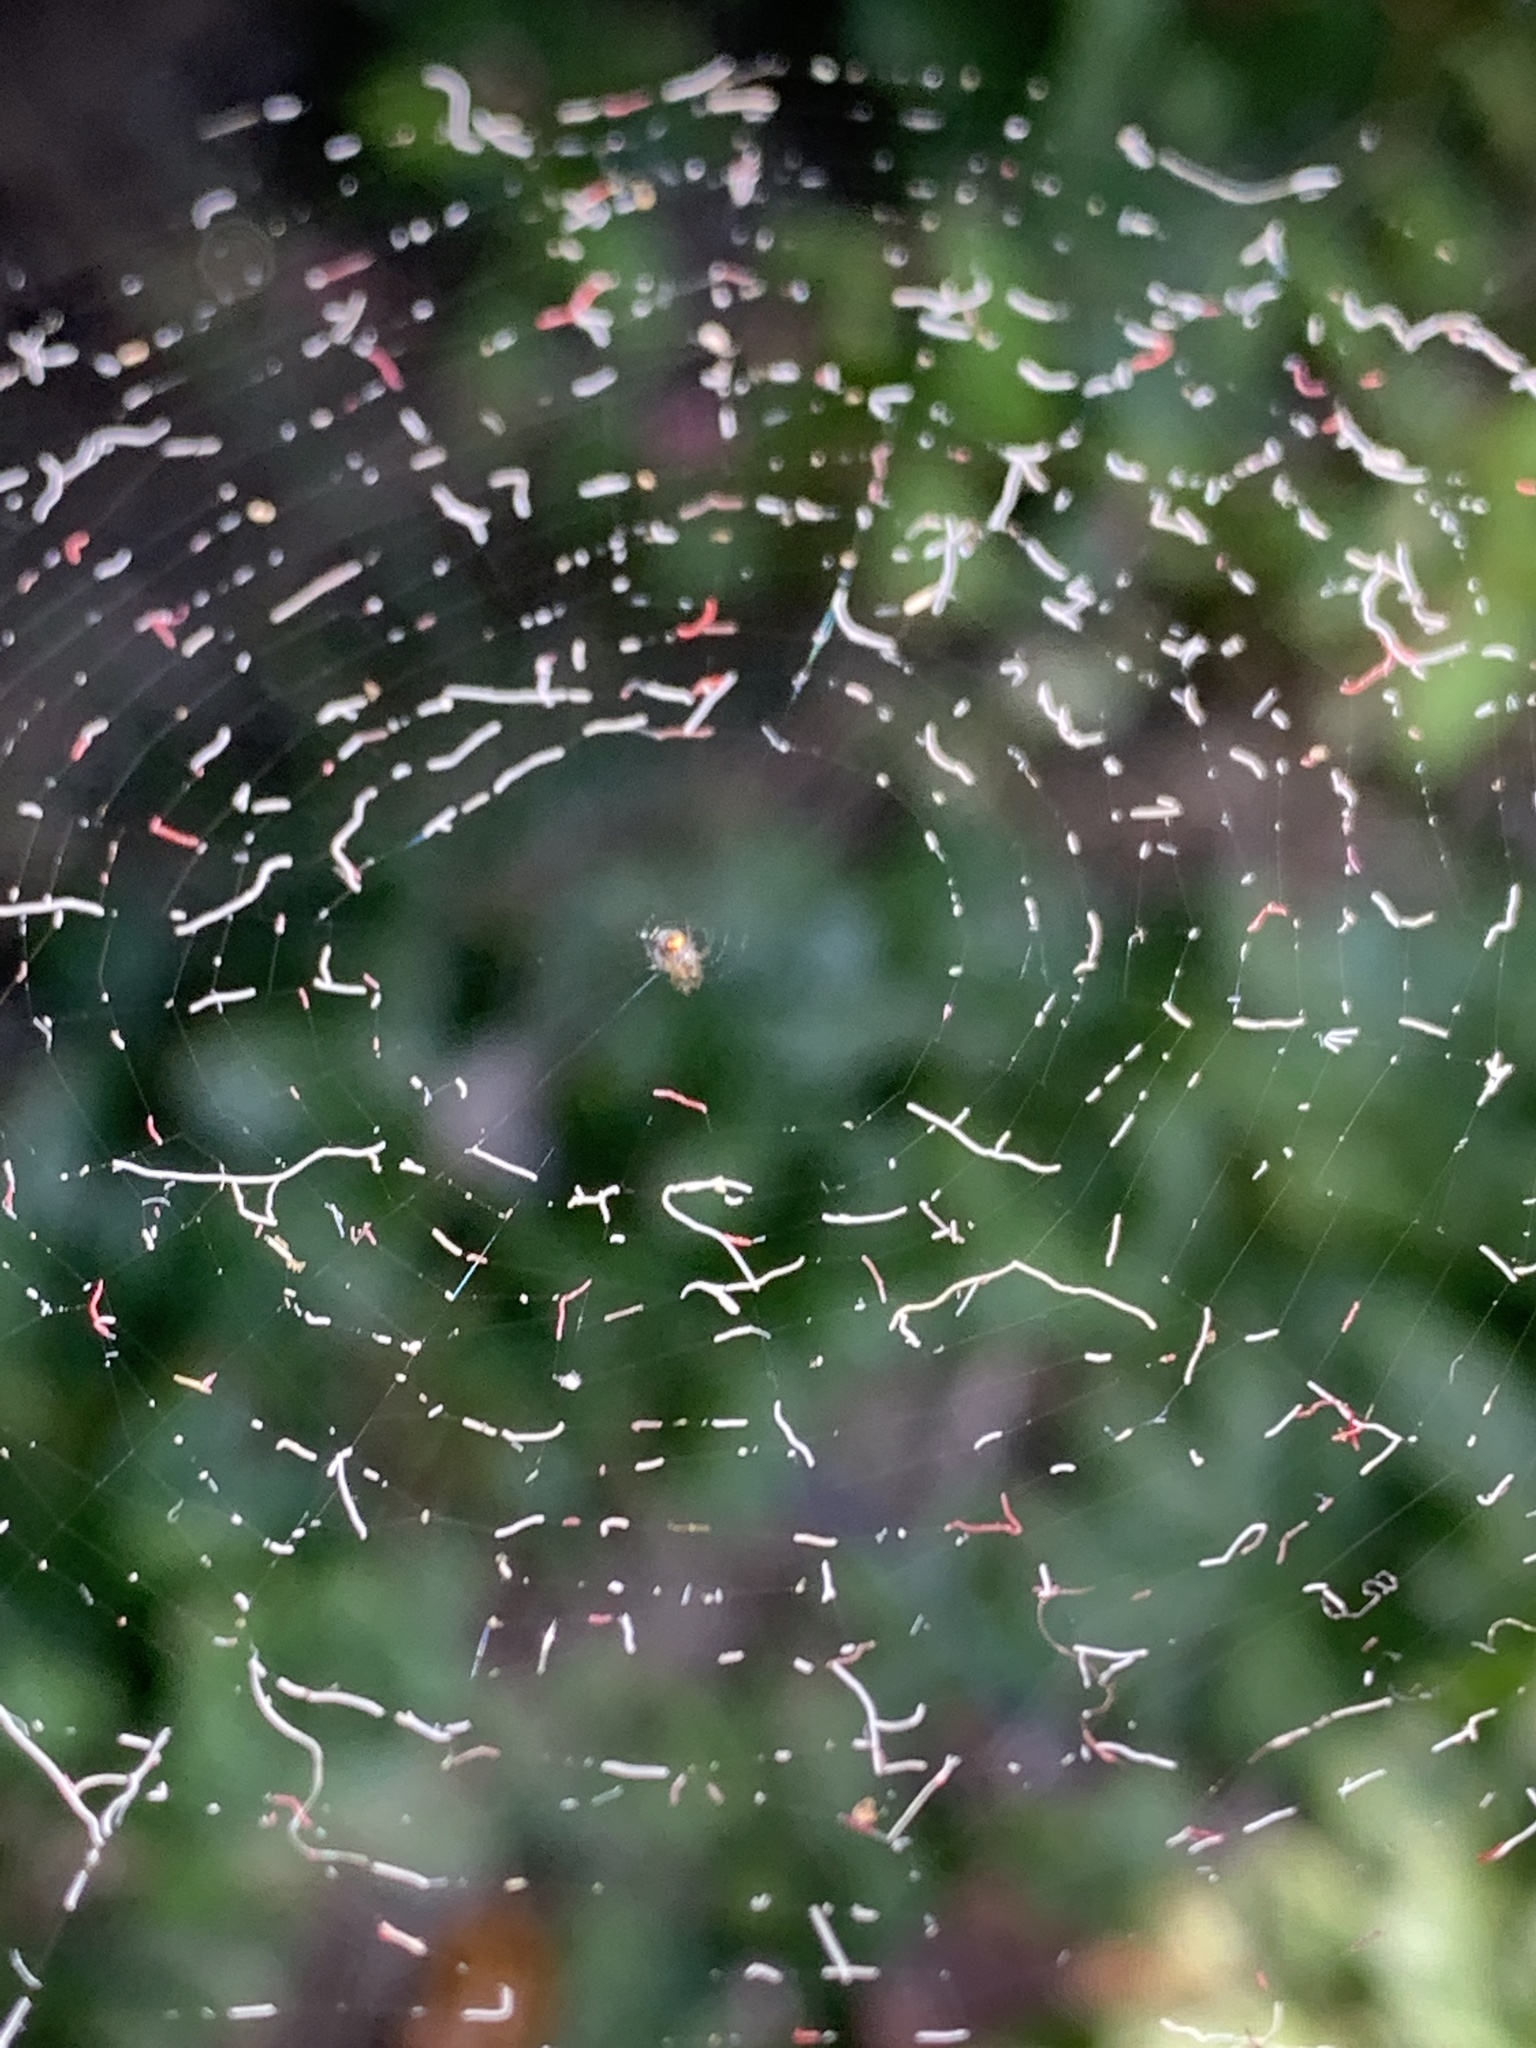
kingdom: Animalia
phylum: Arthropoda
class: Arachnida
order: Araneae
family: Tetragnathidae
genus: Leucauge
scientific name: Leucauge venusta
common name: Longjawed orb weavers
